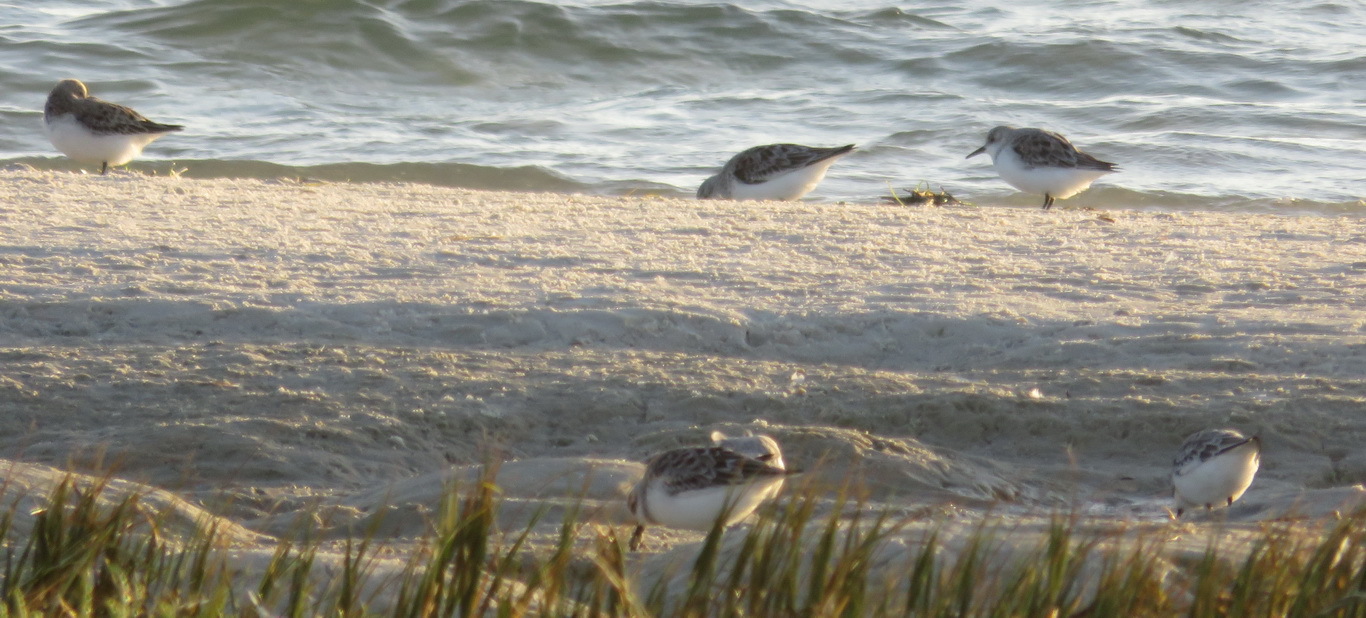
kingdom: Animalia
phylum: Chordata
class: Aves
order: Charadriiformes
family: Scolopacidae
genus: Calidris
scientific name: Calidris alba
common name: Sanderling
